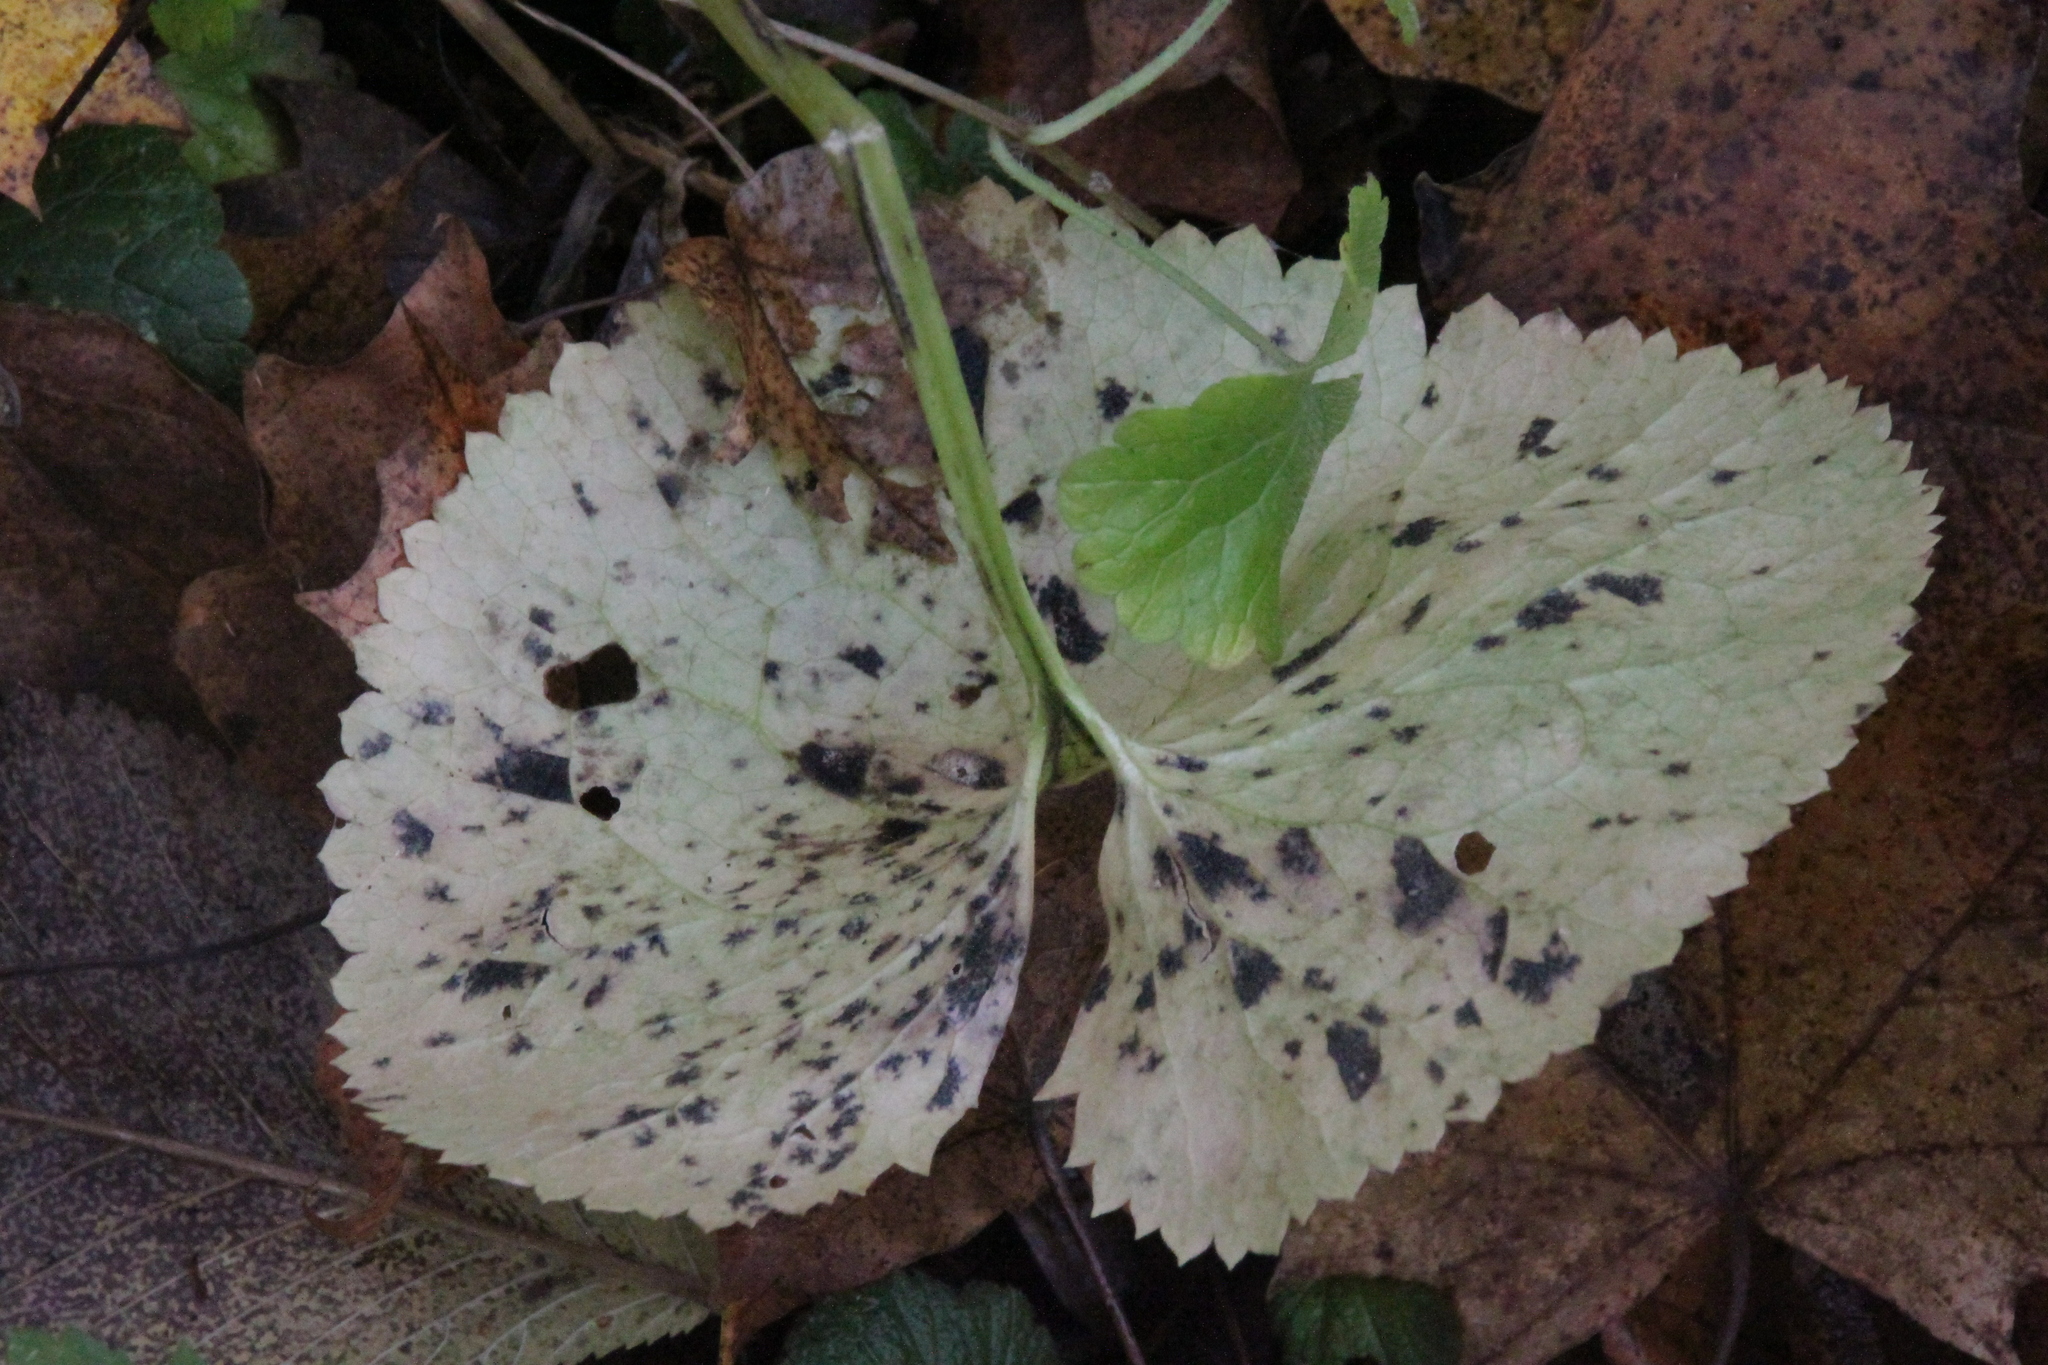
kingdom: Plantae
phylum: Tracheophyta
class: Magnoliopsida
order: Ranunculales
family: Ranunculaceae
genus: Ranunculus
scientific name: Ranunculus cassubicus
